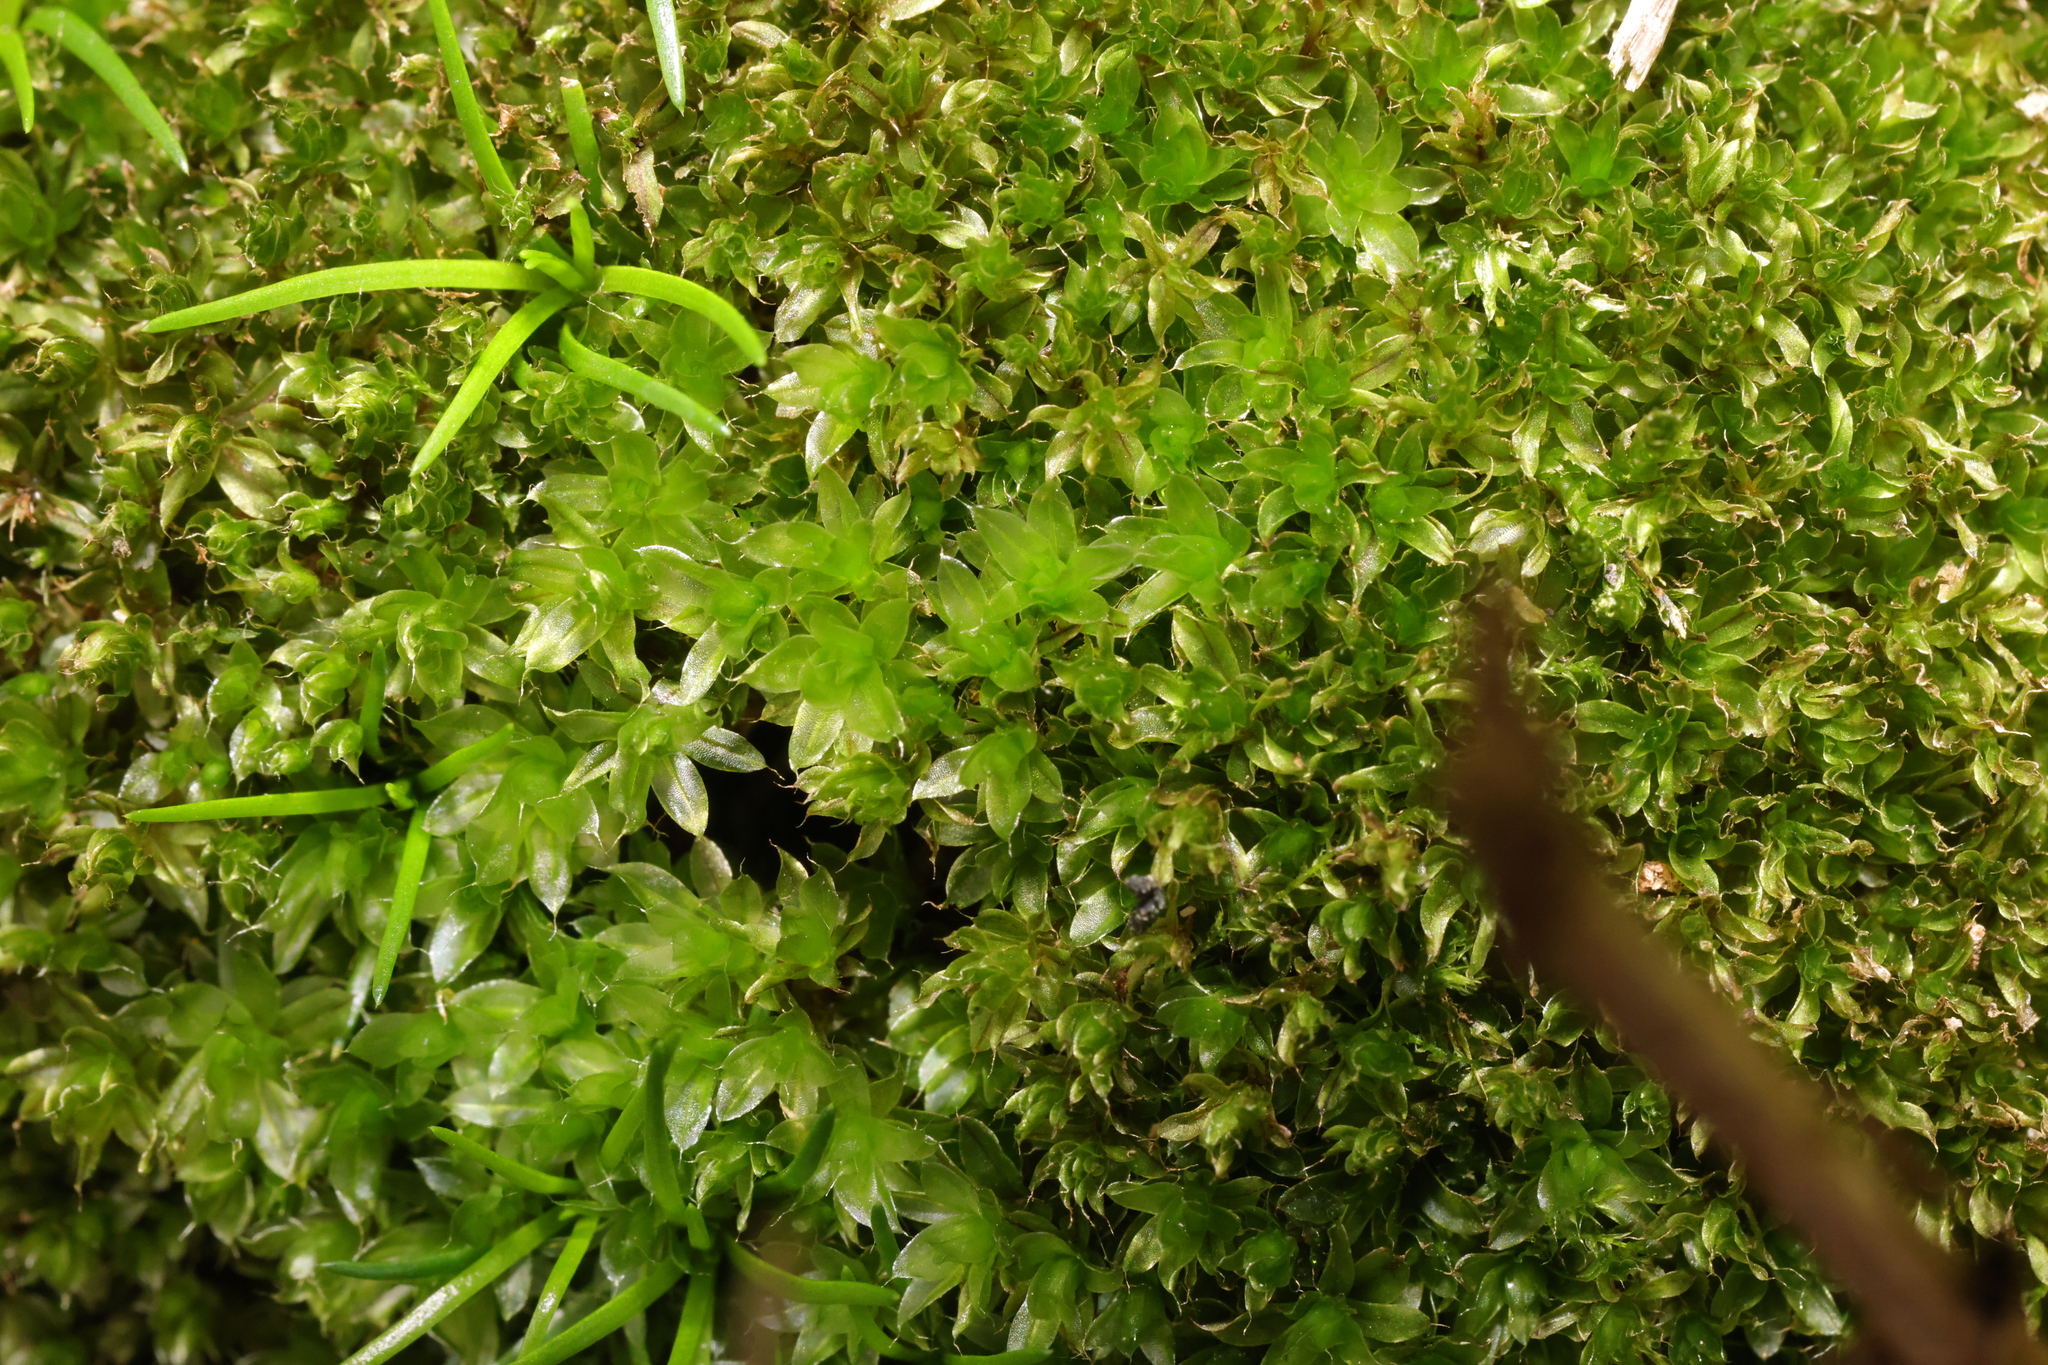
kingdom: Plantae
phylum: Bryophyta
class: Bryopsida
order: Bryales
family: Bryaceae
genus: Rosulabryum
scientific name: Rosulabryum capillare
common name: Capillary thread-moss
